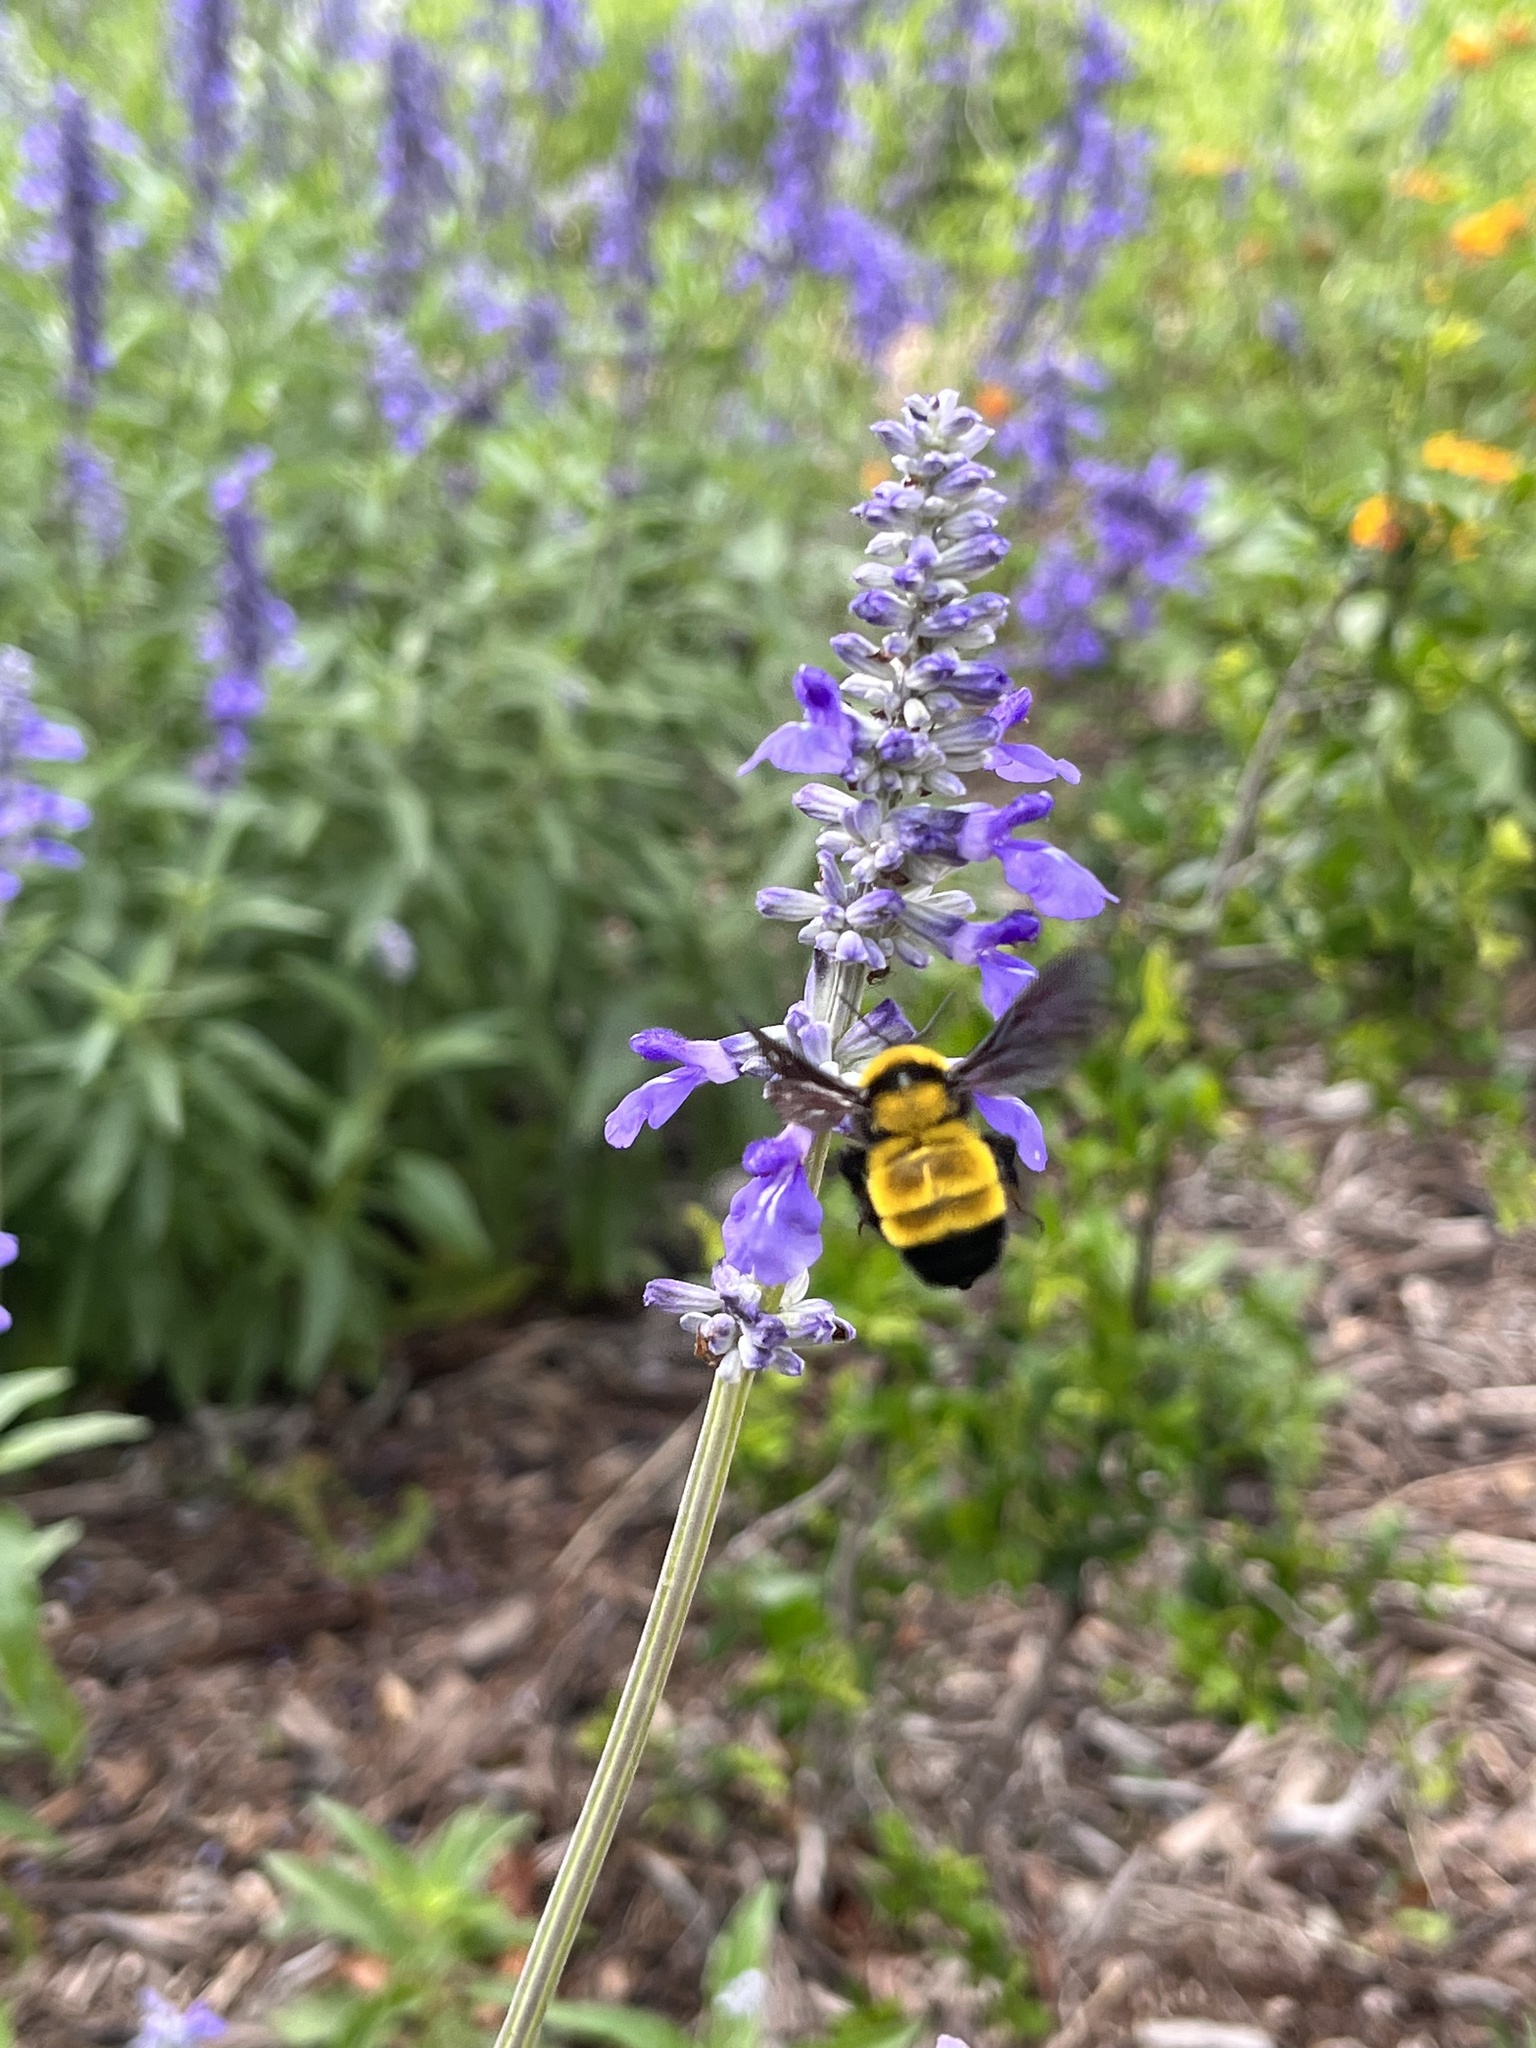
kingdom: Animalia
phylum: Arthropoda
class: Insecta
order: Hymenoptera
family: Apidae
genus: Bombus
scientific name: Bombus sonorus
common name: Sonoran bumble bee
